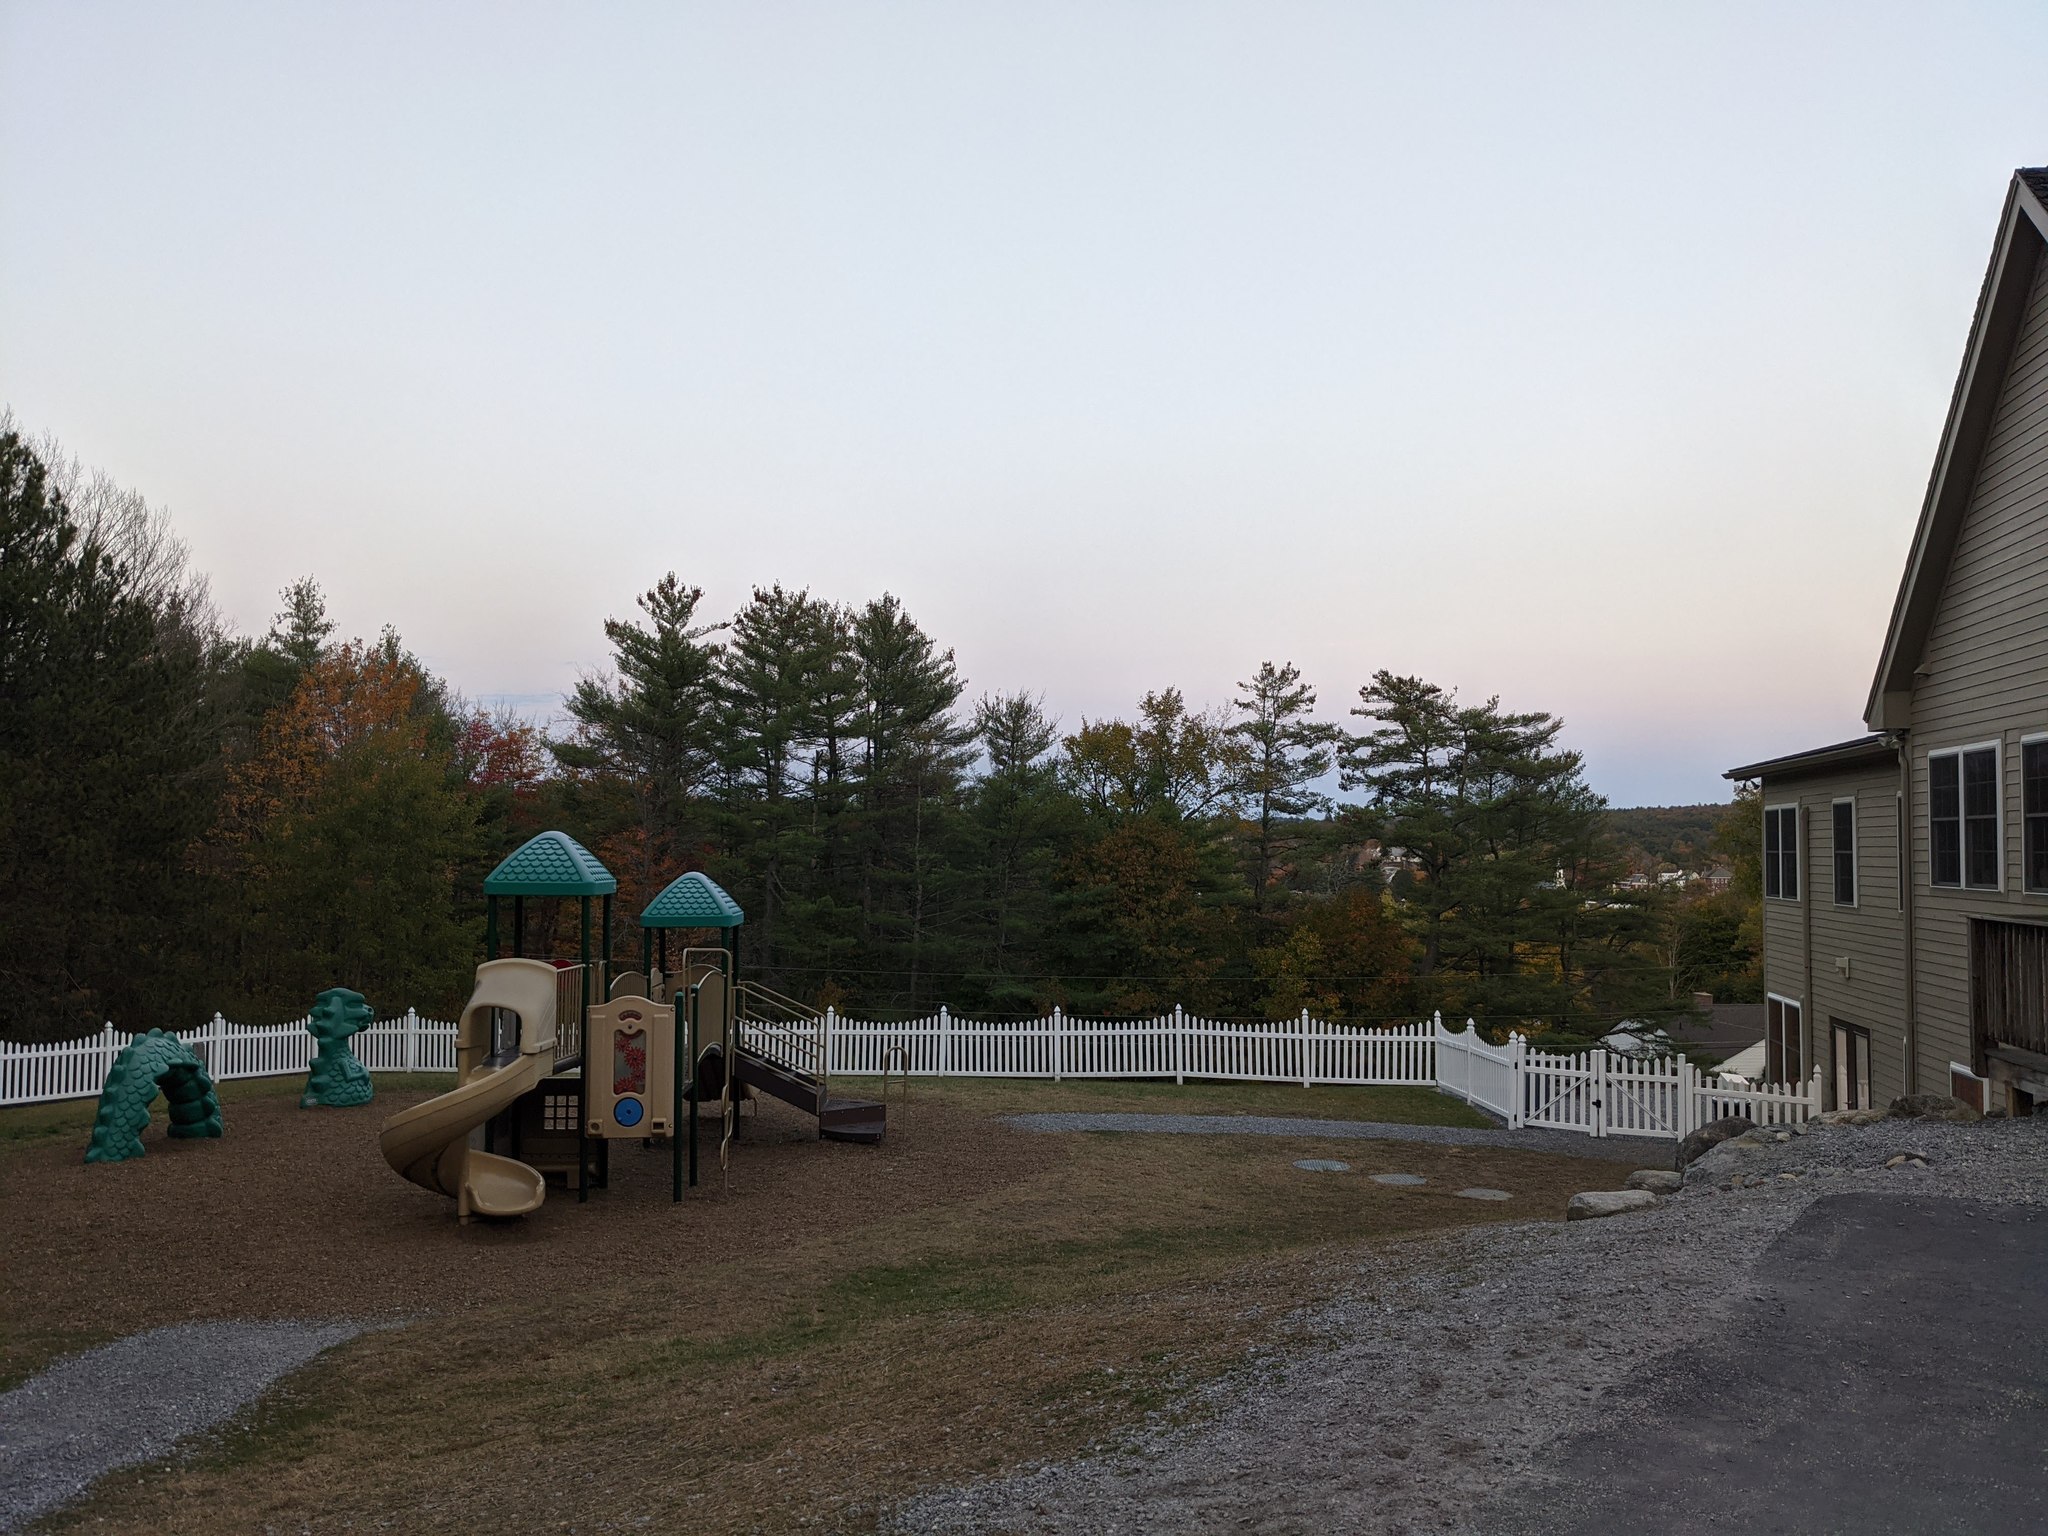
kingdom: Plantae
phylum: Tracheophyta
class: Pinopsida
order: Pinales
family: Pinaceae
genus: Pinus
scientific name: Pinus strobus
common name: Weymouth pine
